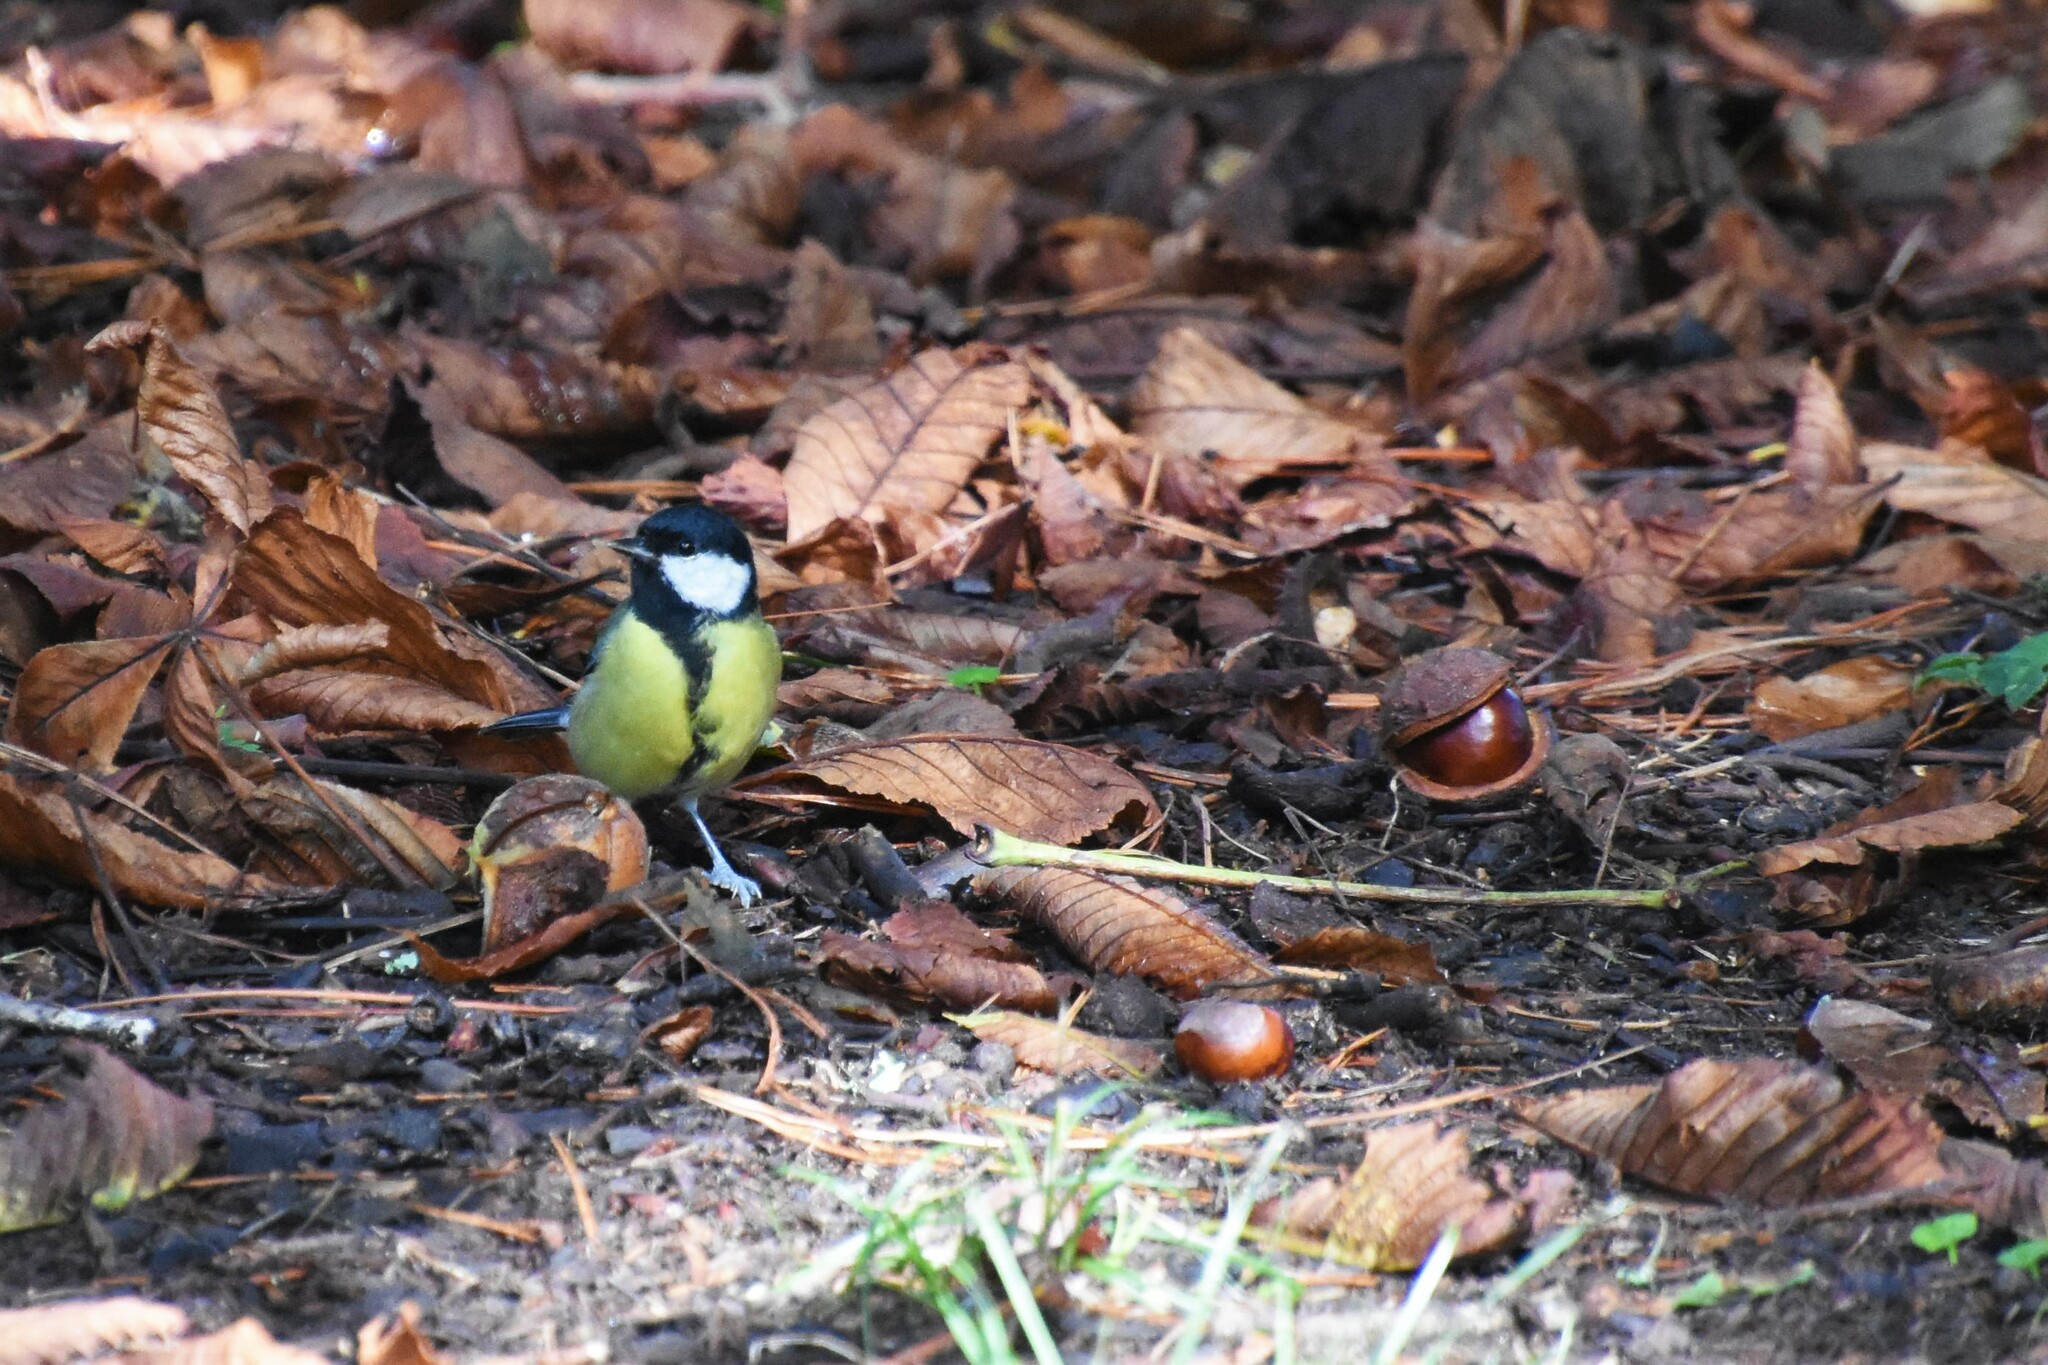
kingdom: Animalia
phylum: Chordata
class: Aves
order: Passeriformes
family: Paridae
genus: Parus
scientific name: Parus major
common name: Great tit
